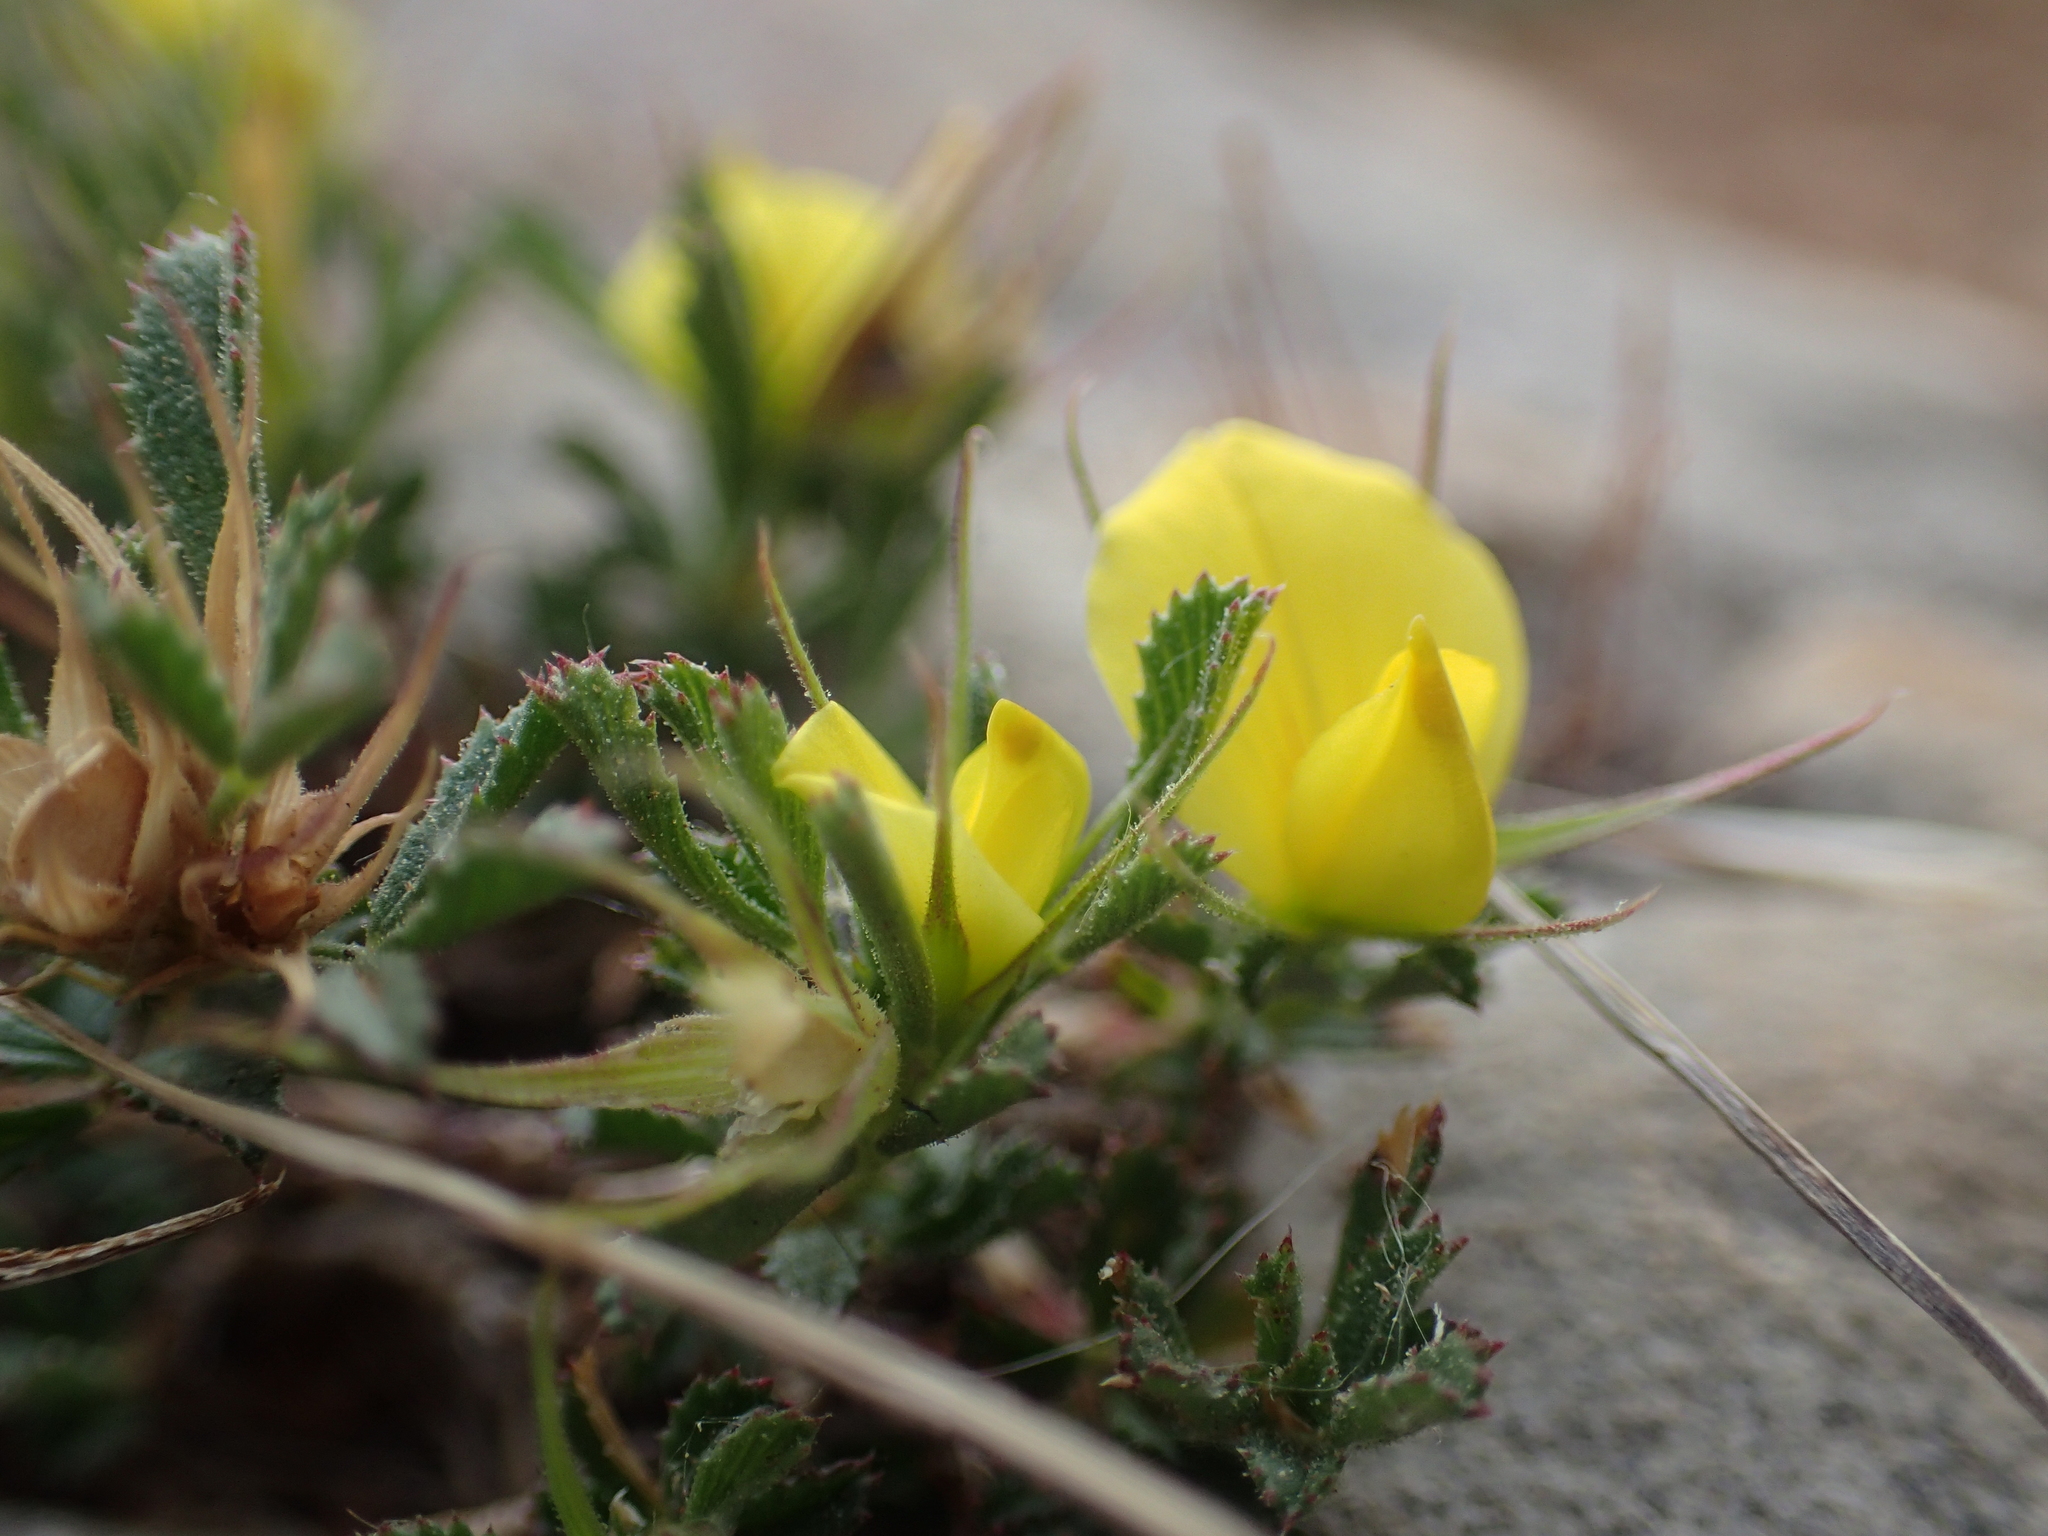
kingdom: Plantae
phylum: Tracheophyta
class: Magnoliopsida
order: Fabales
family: Fabaceae
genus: Ononis
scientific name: Ononis minutissima
